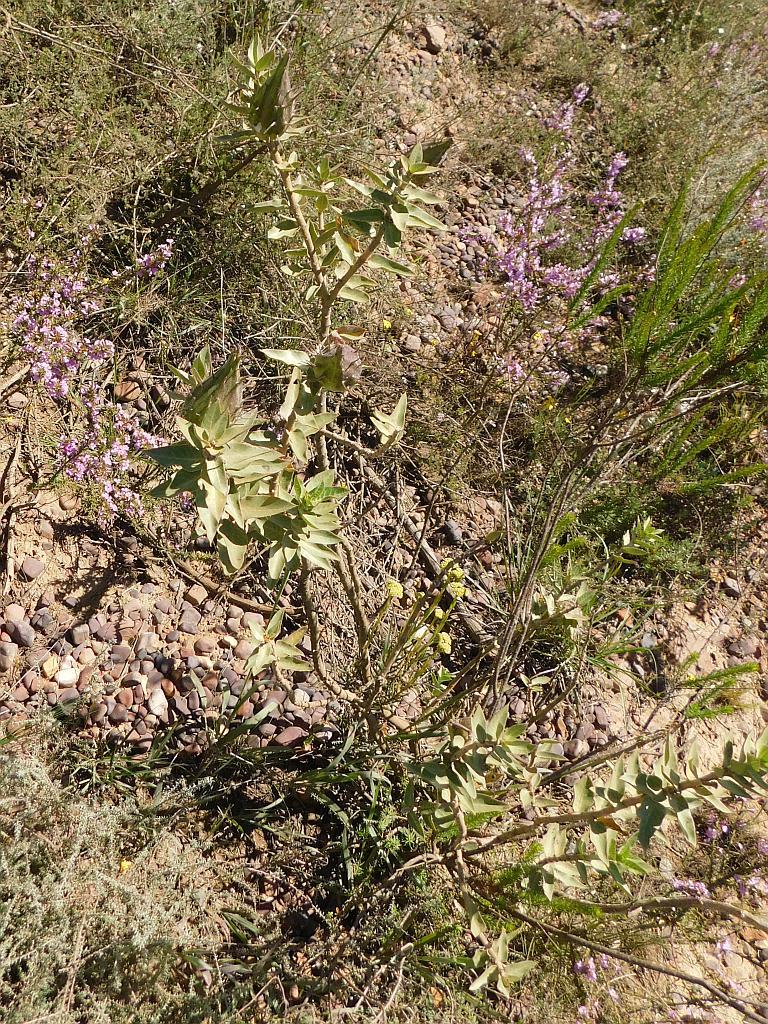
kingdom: Plantae
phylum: Tracheophyta
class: Magnoliopsida
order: Gentianales
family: Apocynaceae
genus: Gomphocarpus
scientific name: Gomphocarpus cancellatus
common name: Wild cotton
